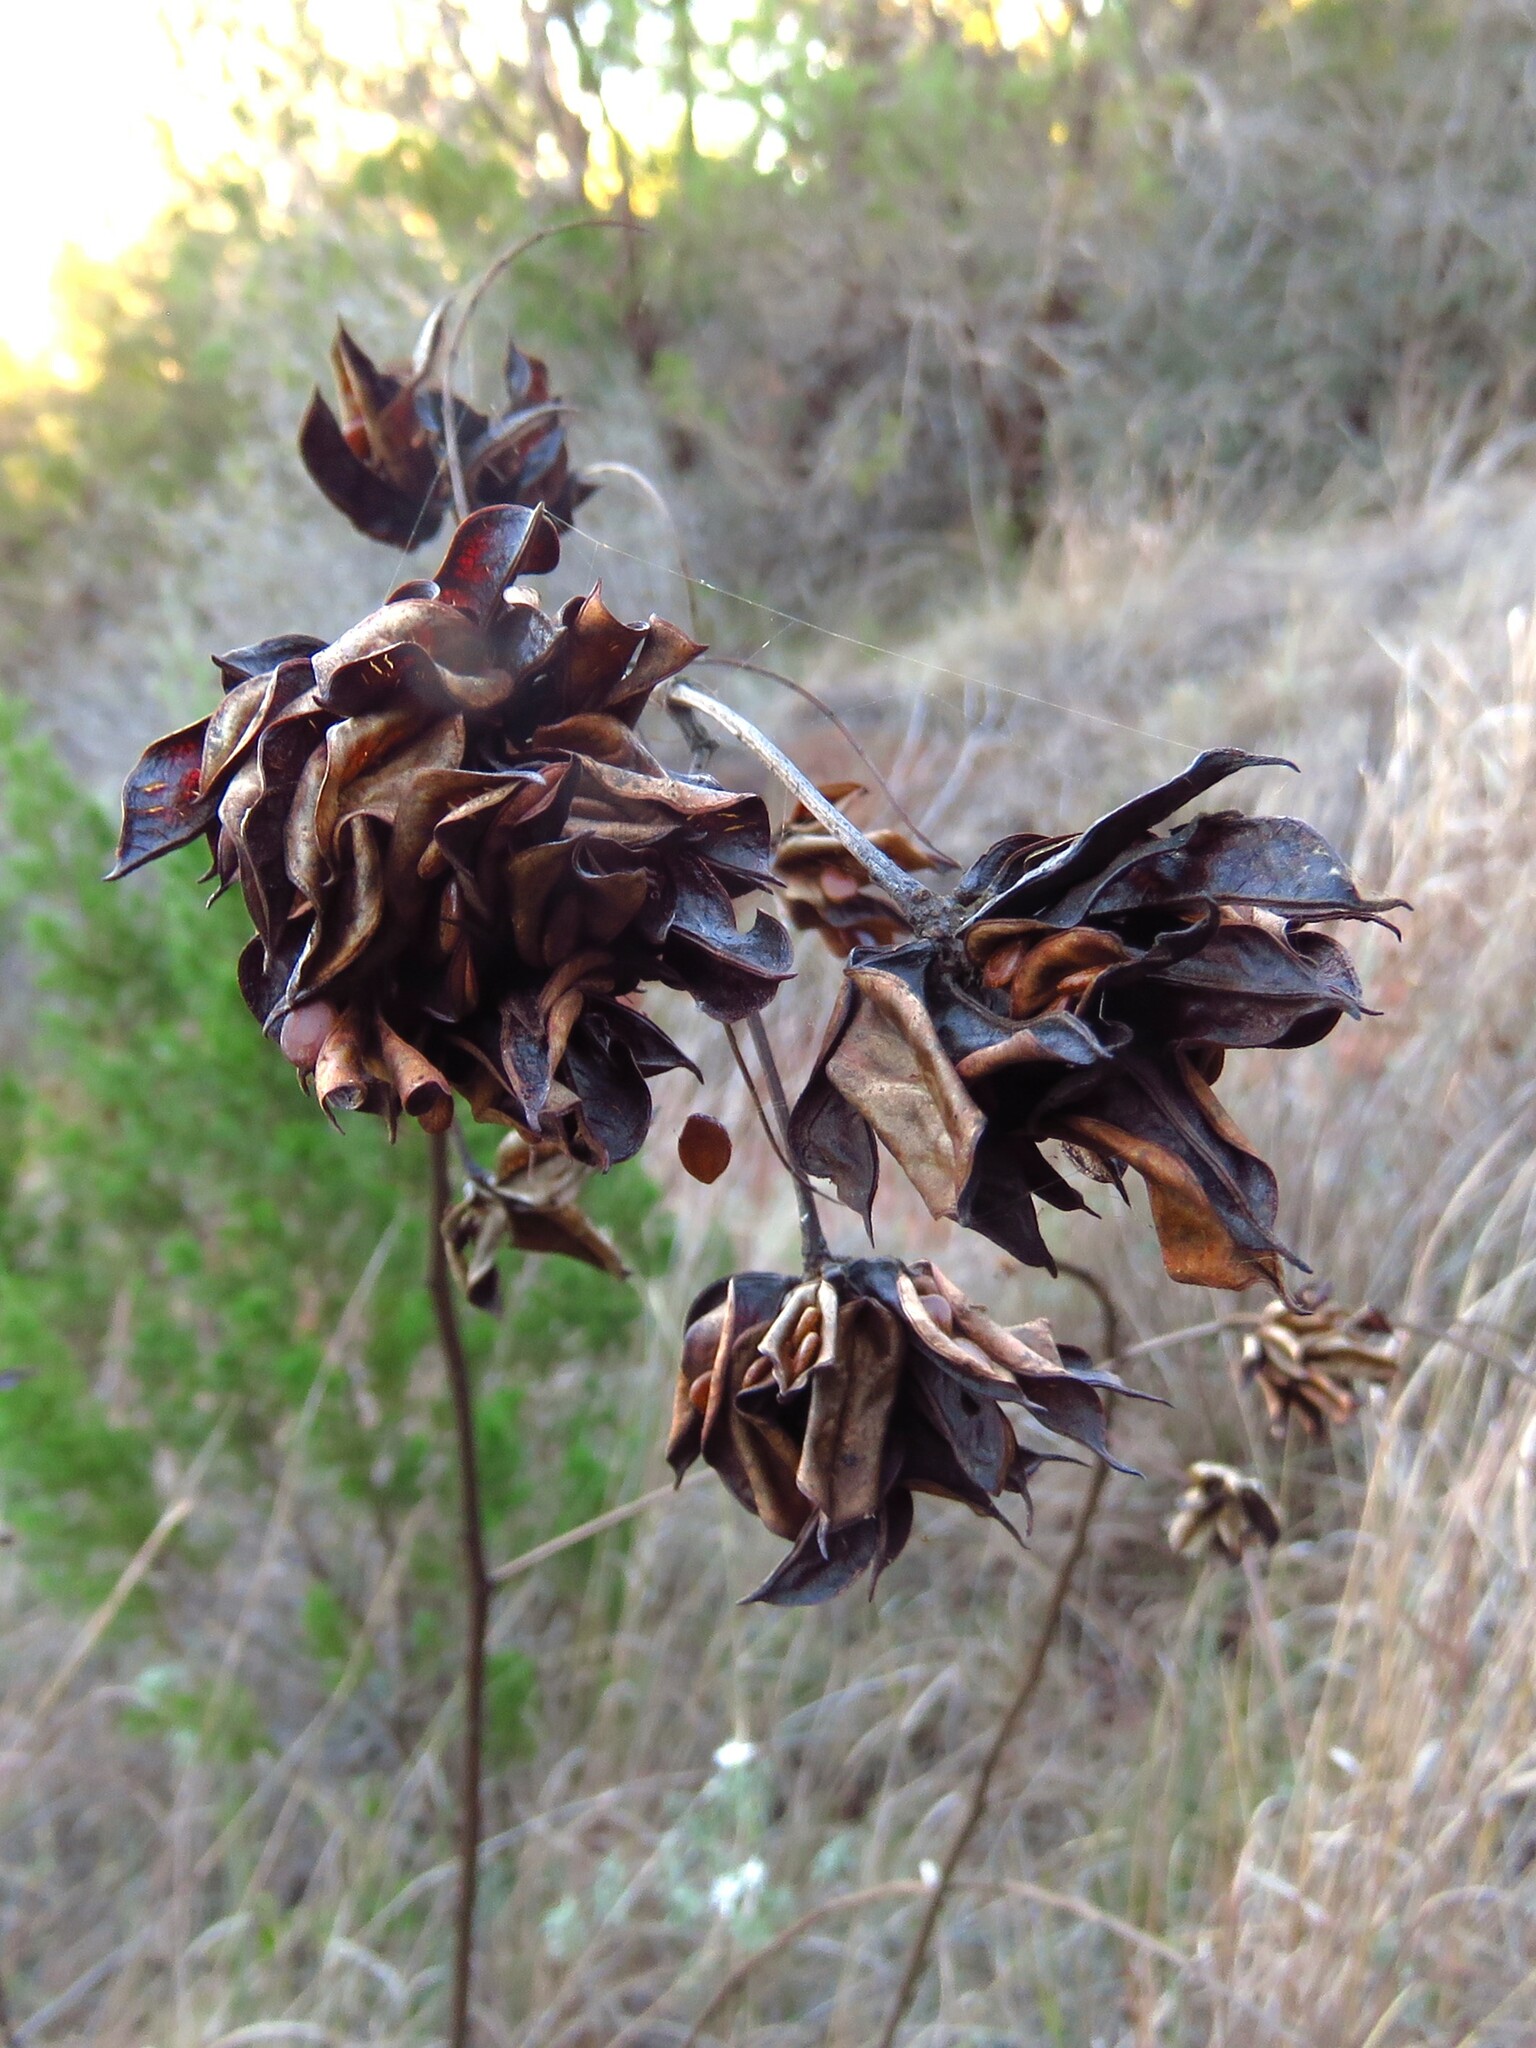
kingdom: Plantae
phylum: Tracheophyta
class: Magnoliopsida
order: Fabales
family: Fabaceae
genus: Desmanthus
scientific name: Desmanthus illinoensis
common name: Illinois bundle-flower
